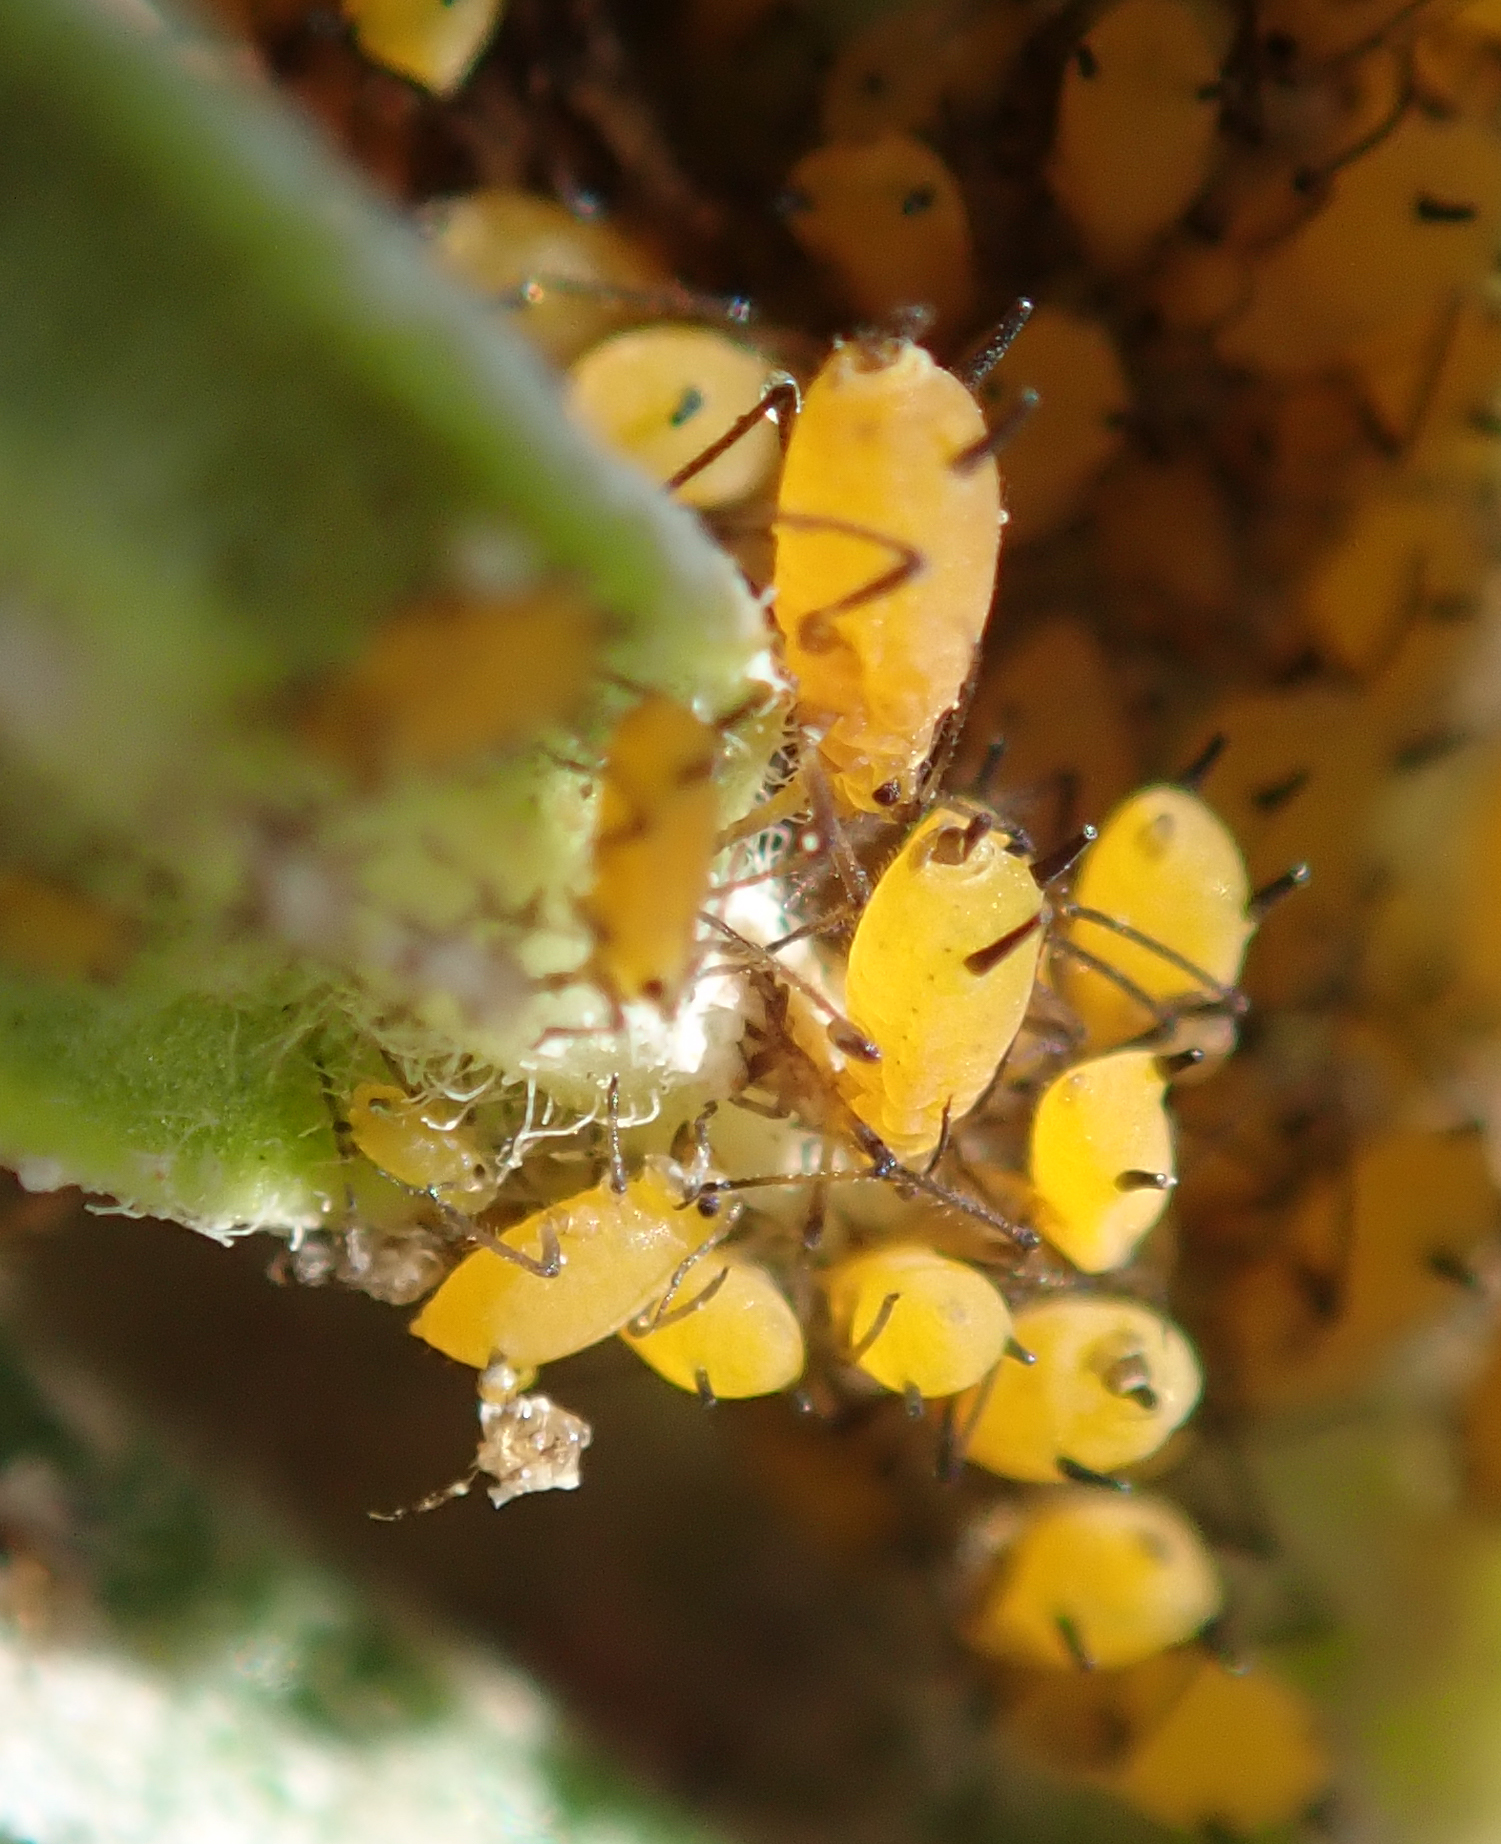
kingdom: Animalia
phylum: Arthropoda
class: Insecta
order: Hemiptera
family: Aphididae
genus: Aphis
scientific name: Aphis nerii
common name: Oleander aphid
